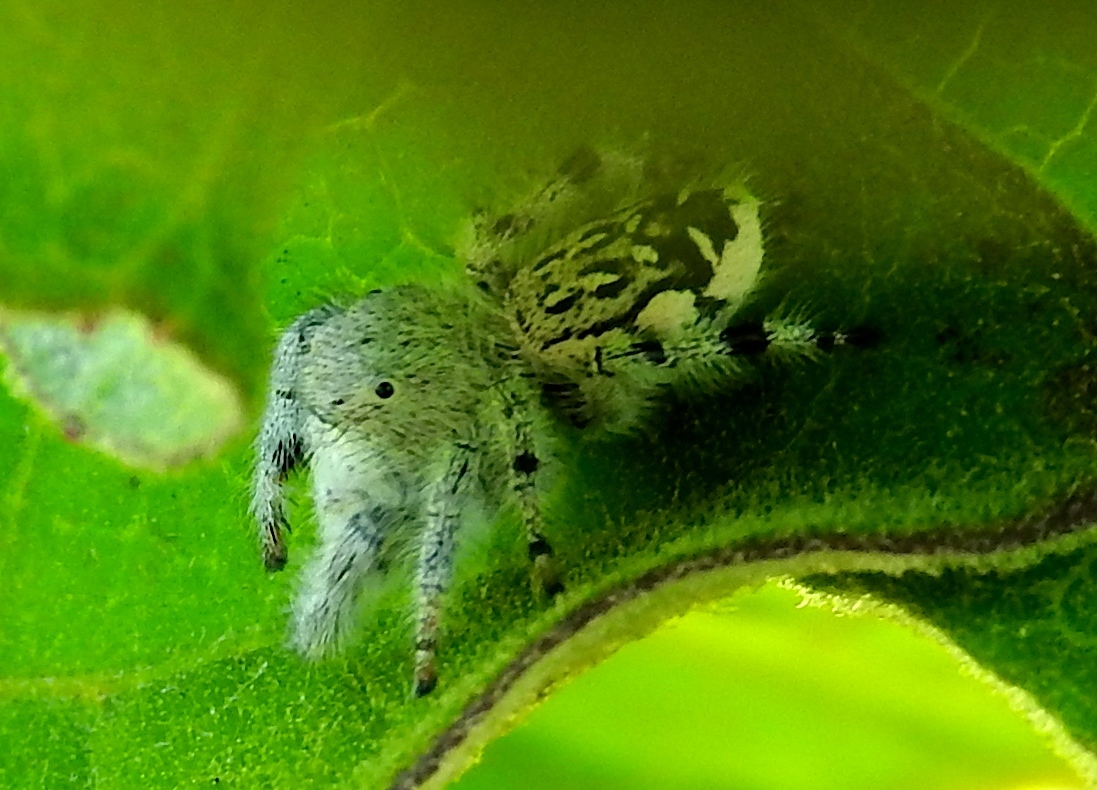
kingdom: Animalia
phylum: Arthropoda
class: Arachnida
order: Araneae
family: Salticidae
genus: Paraphidippus
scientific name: Paraphidippus fartilis
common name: Jumping spiders
